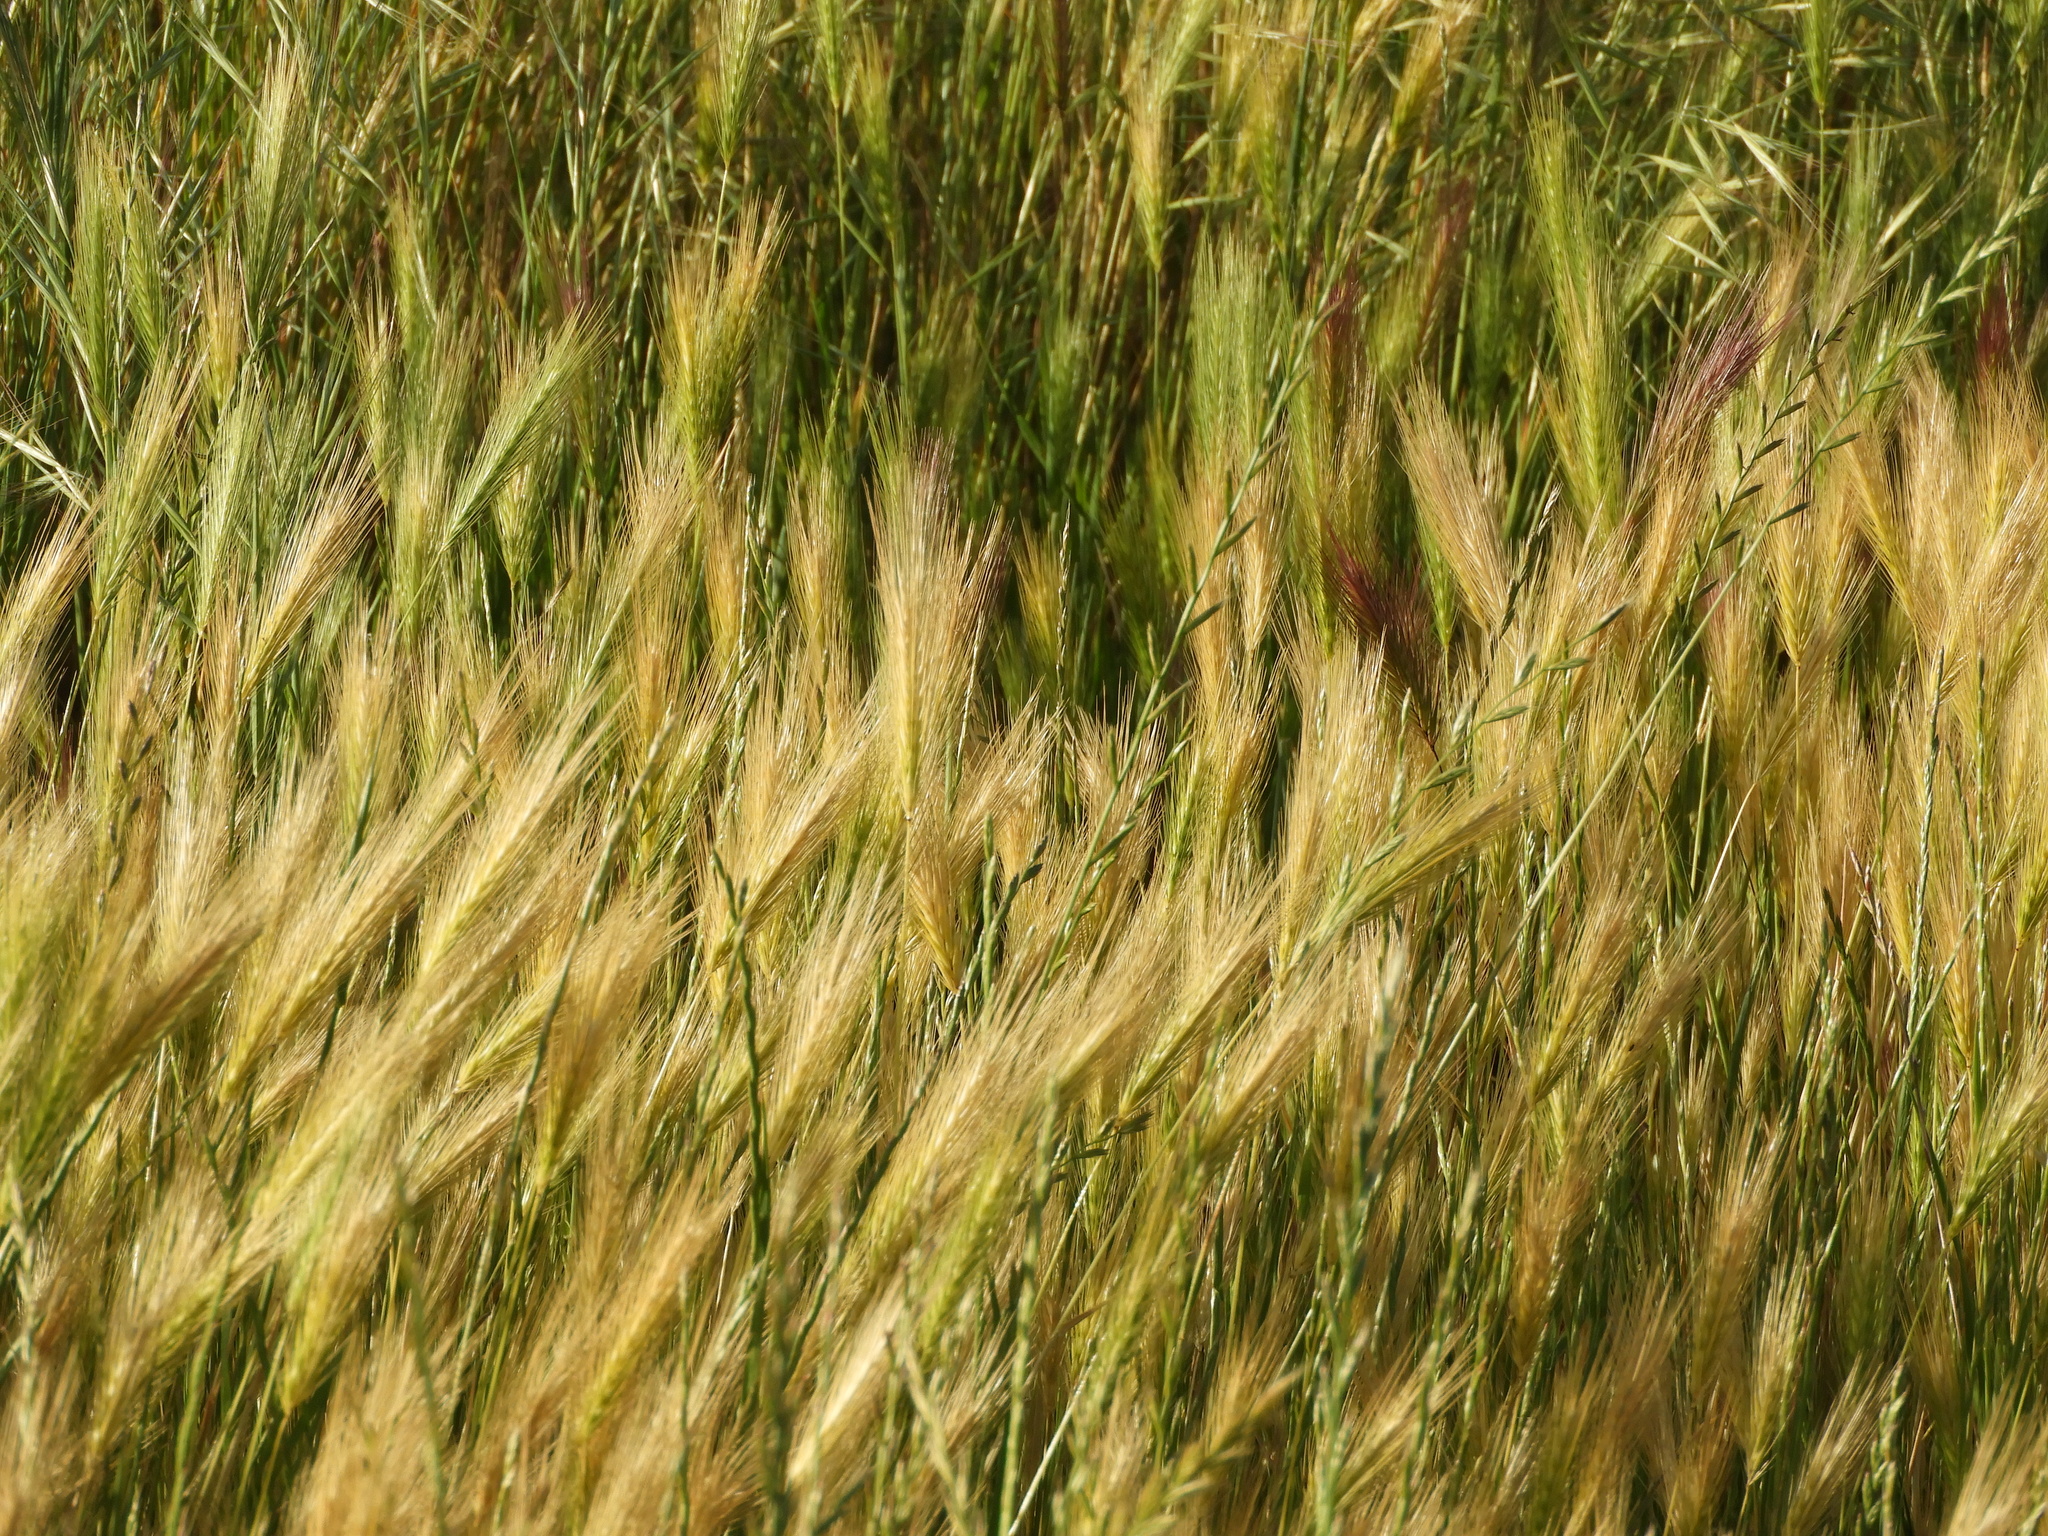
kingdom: Plantae
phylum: Tracheophyta
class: Liliopsida
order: Poales
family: Poaceae
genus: Hordeum
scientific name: Hordeum murinum
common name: Wall barley
